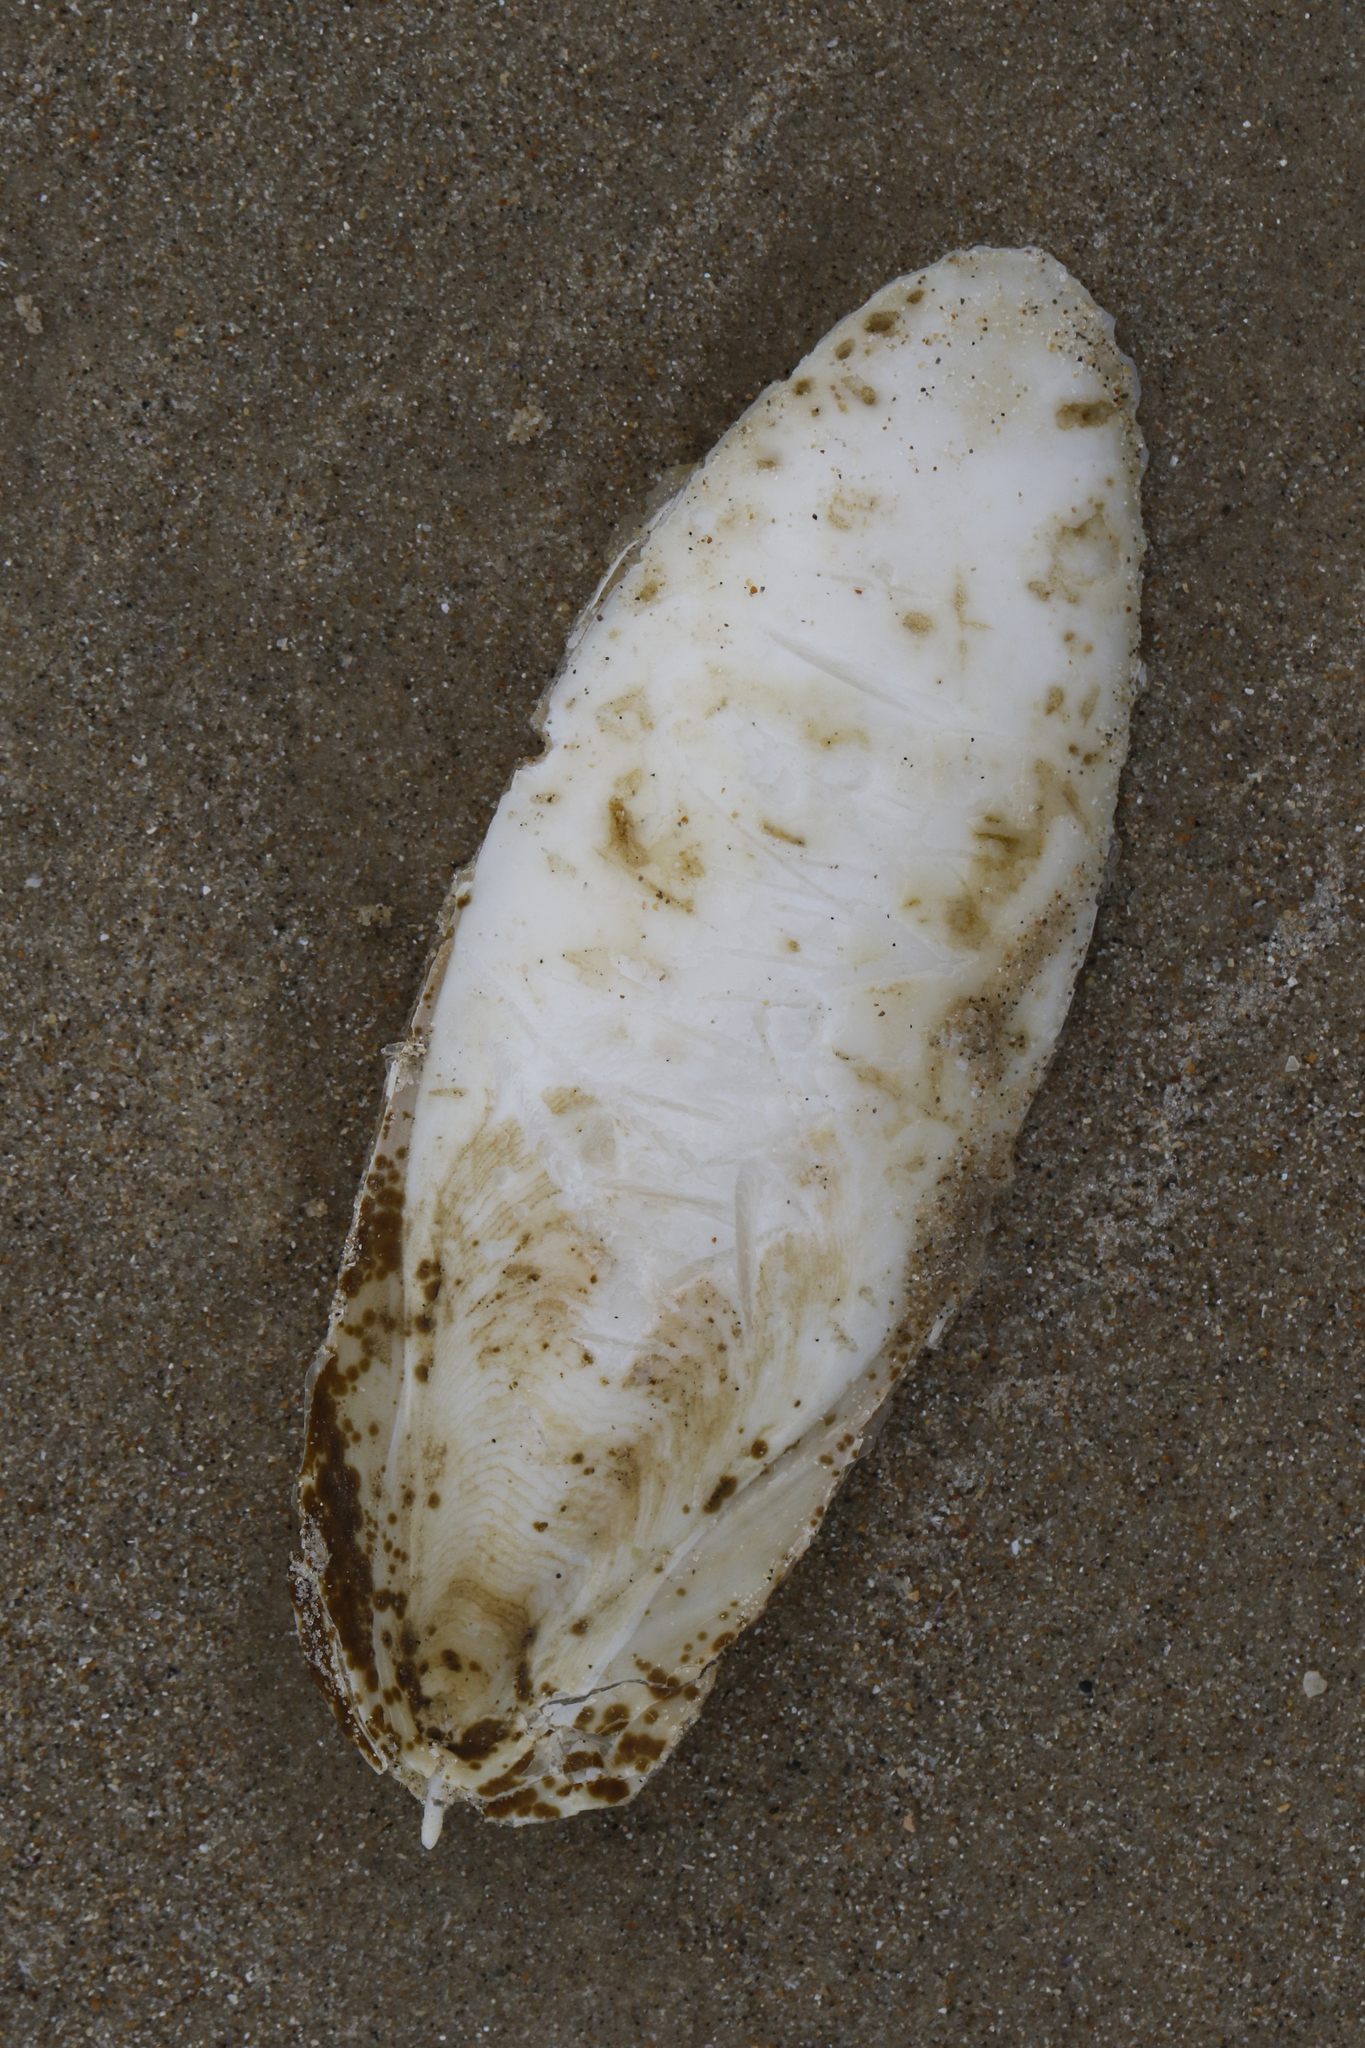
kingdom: Animalia
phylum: Mollusca
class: Cephalopoda
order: Sepiida
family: Sepiidae
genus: Sepia
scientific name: Sepia officinalis
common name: Common cuttlefish
